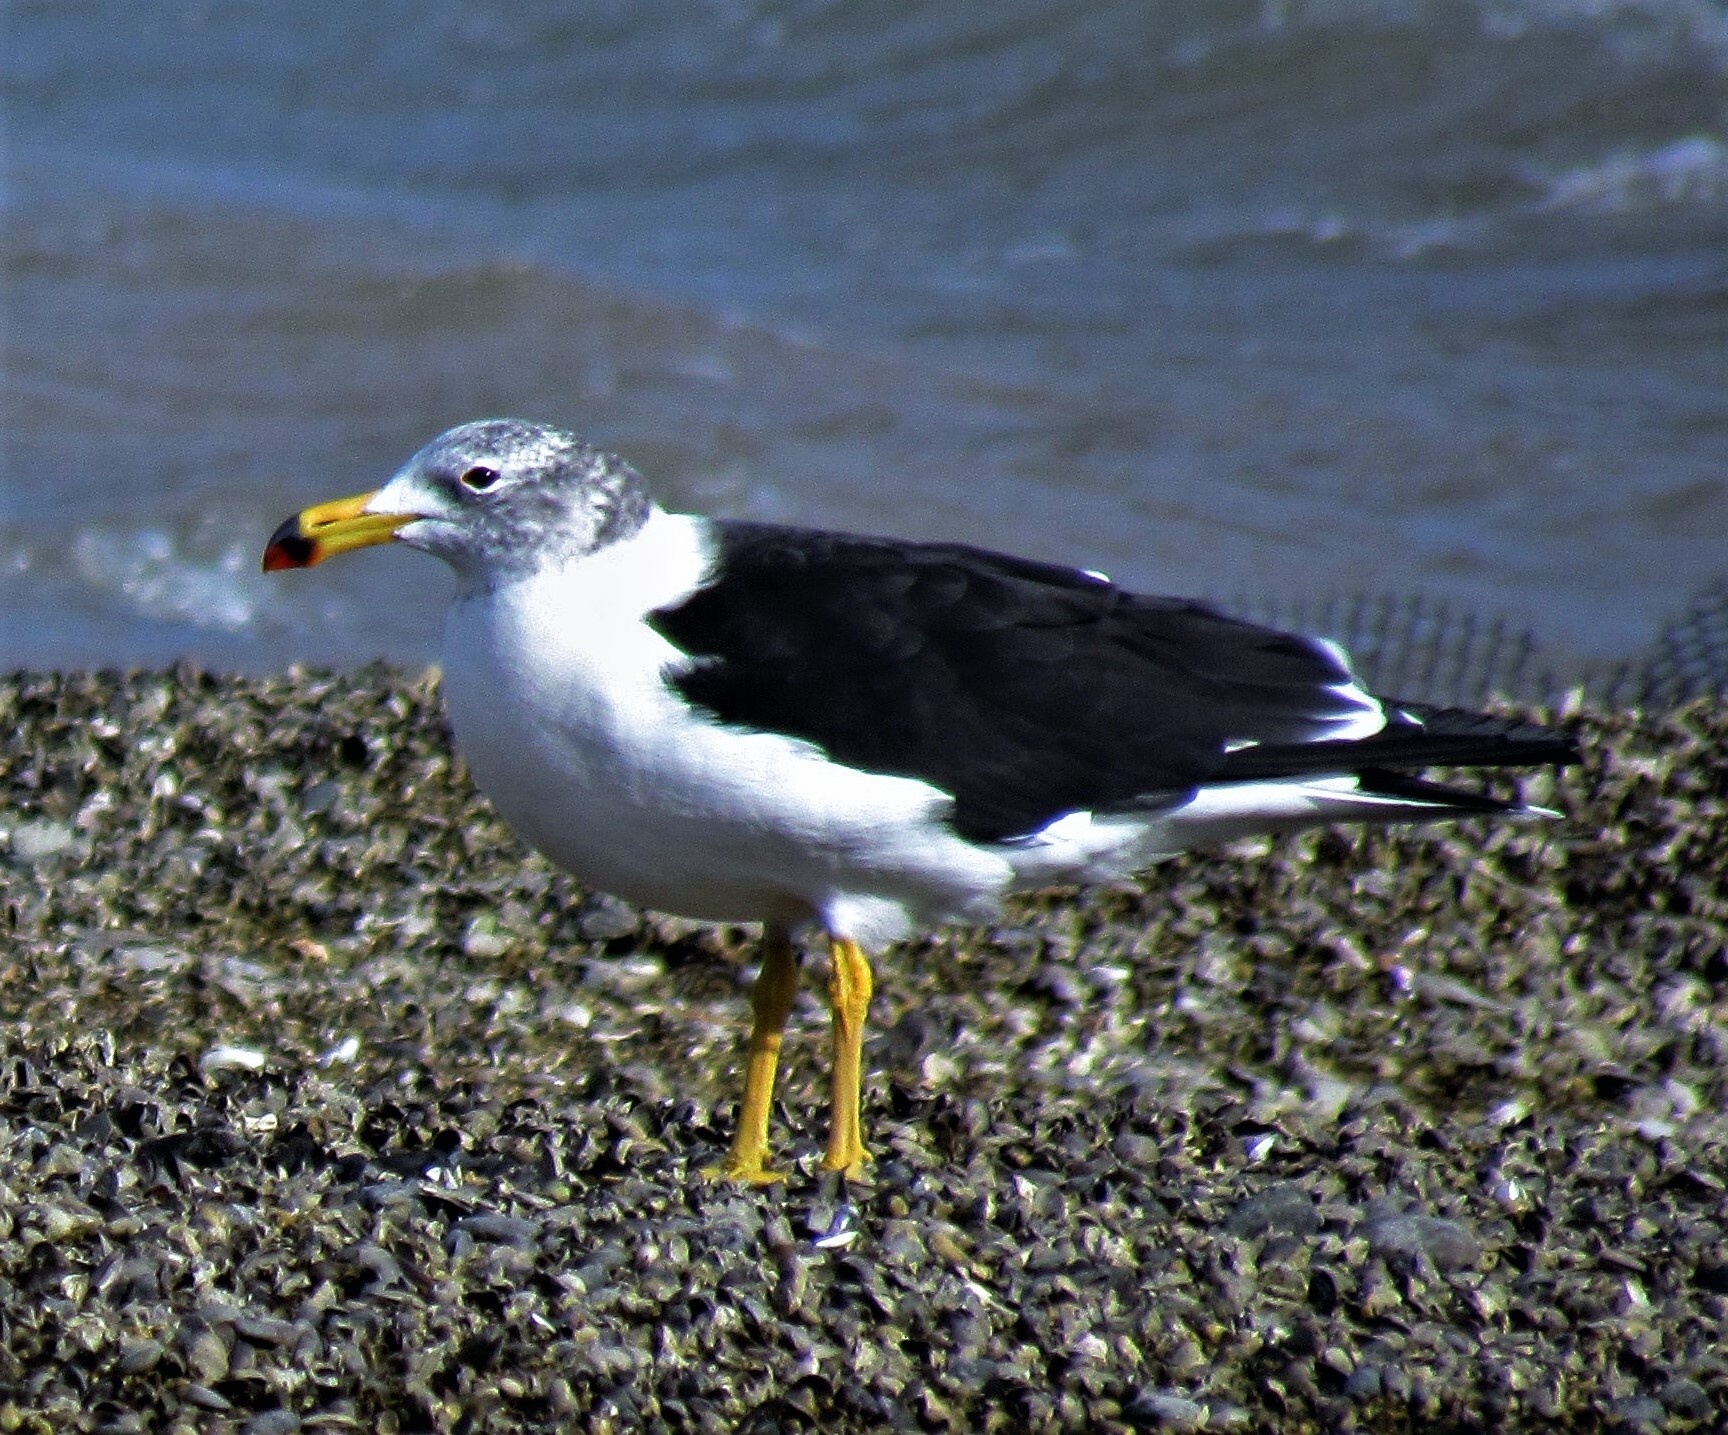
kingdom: Animalia
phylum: Chordata
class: Aves
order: Charadriiformes
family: Laridae
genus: Larus
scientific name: Larus atlanticus
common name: Olrog's gull
